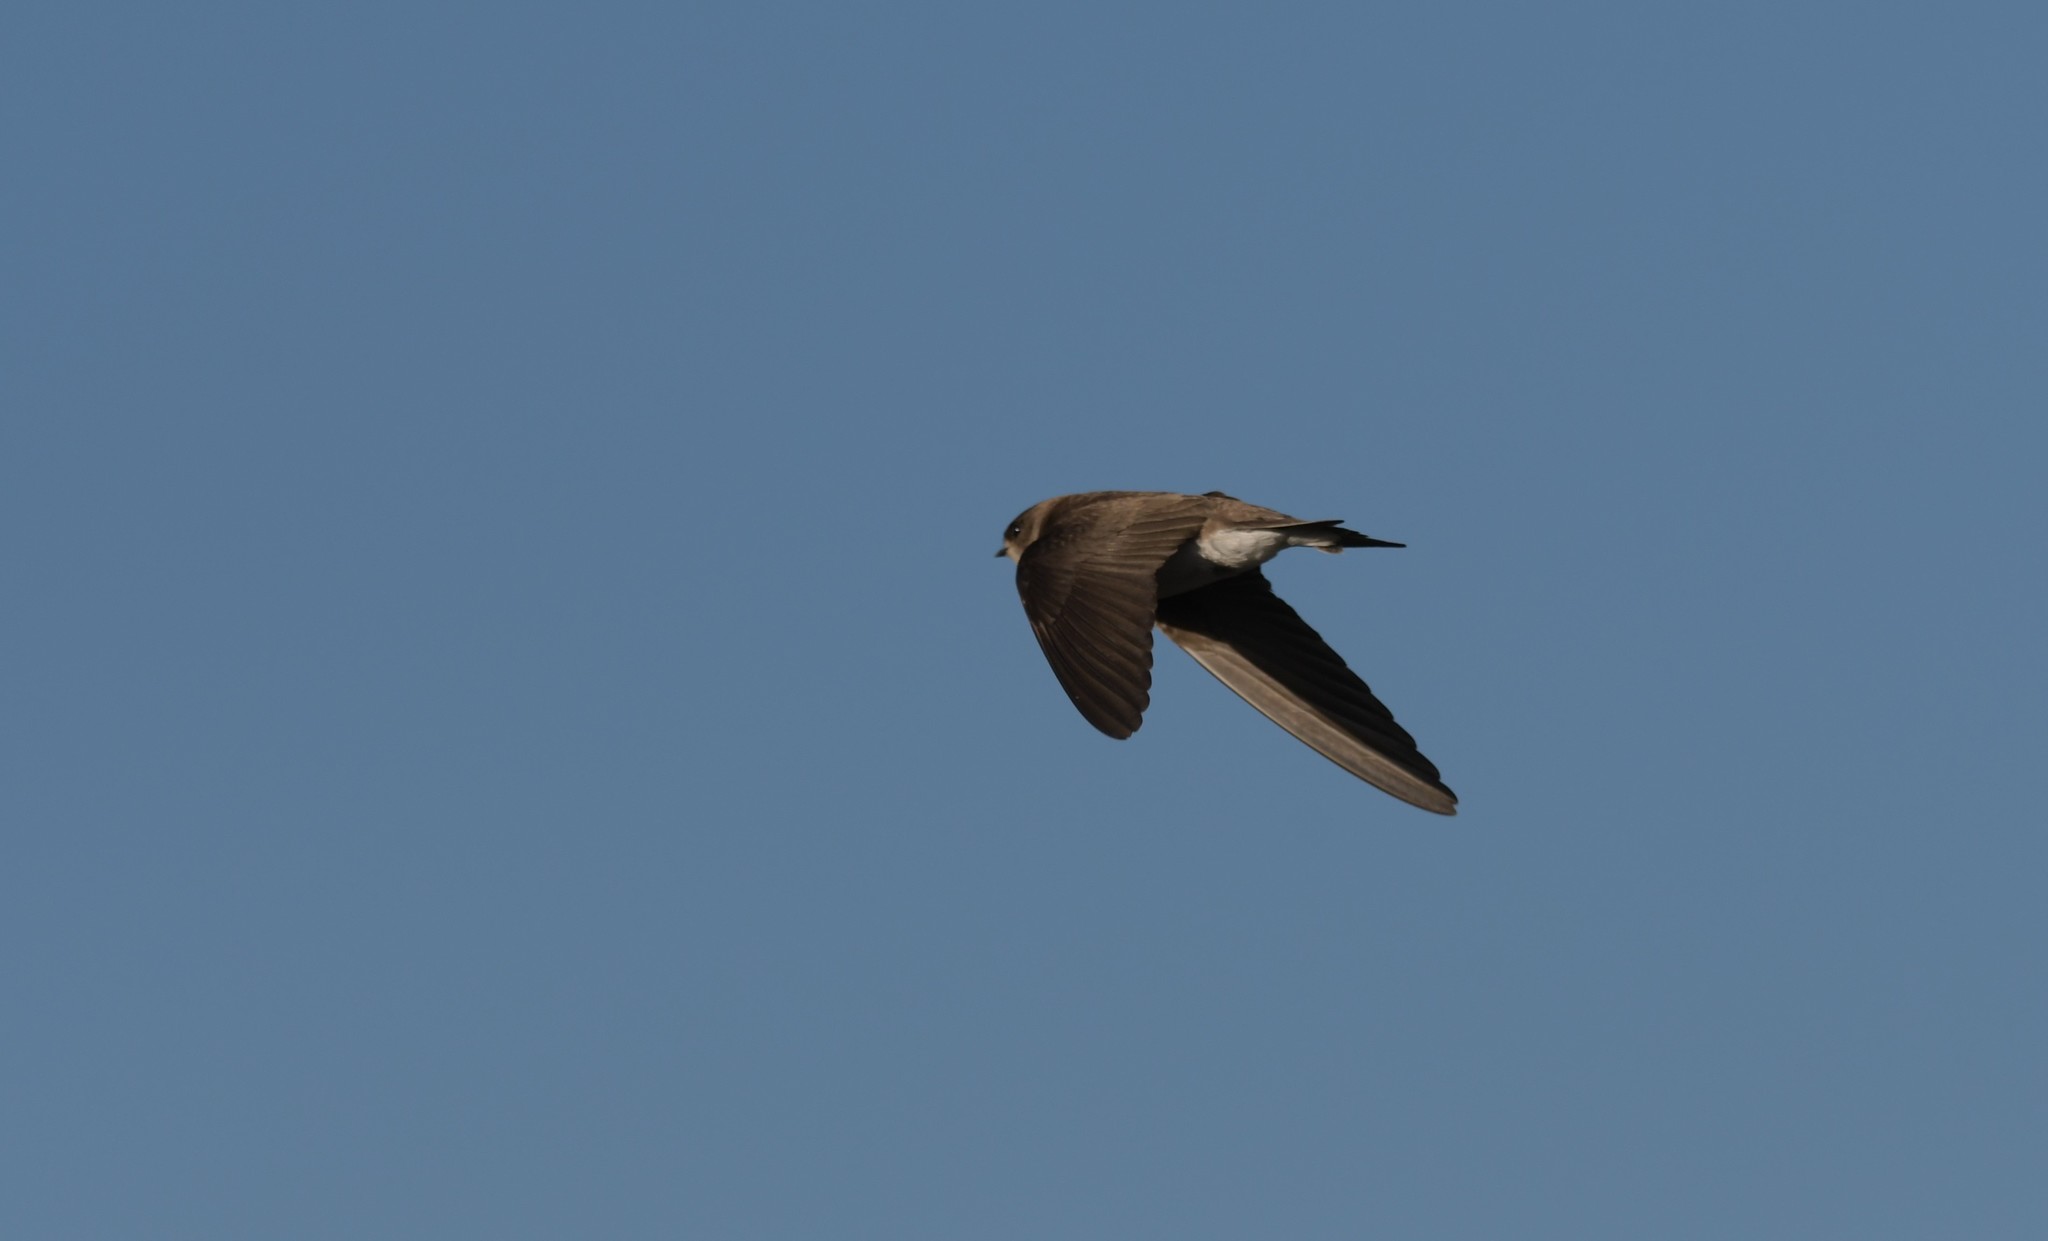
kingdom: Animalia
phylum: Chordata
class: Aves
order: Passeriformes
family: Hirundinidae
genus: Riparia
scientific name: Riparia riparia
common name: Sand martin
